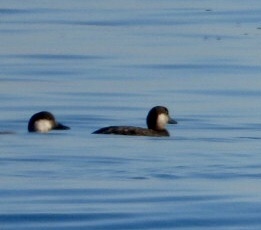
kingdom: Animalia
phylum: Chordata
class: Aves
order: Anseriformes
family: Anatidae
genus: Melanitta
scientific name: Melanitta americana
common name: Black scoter
